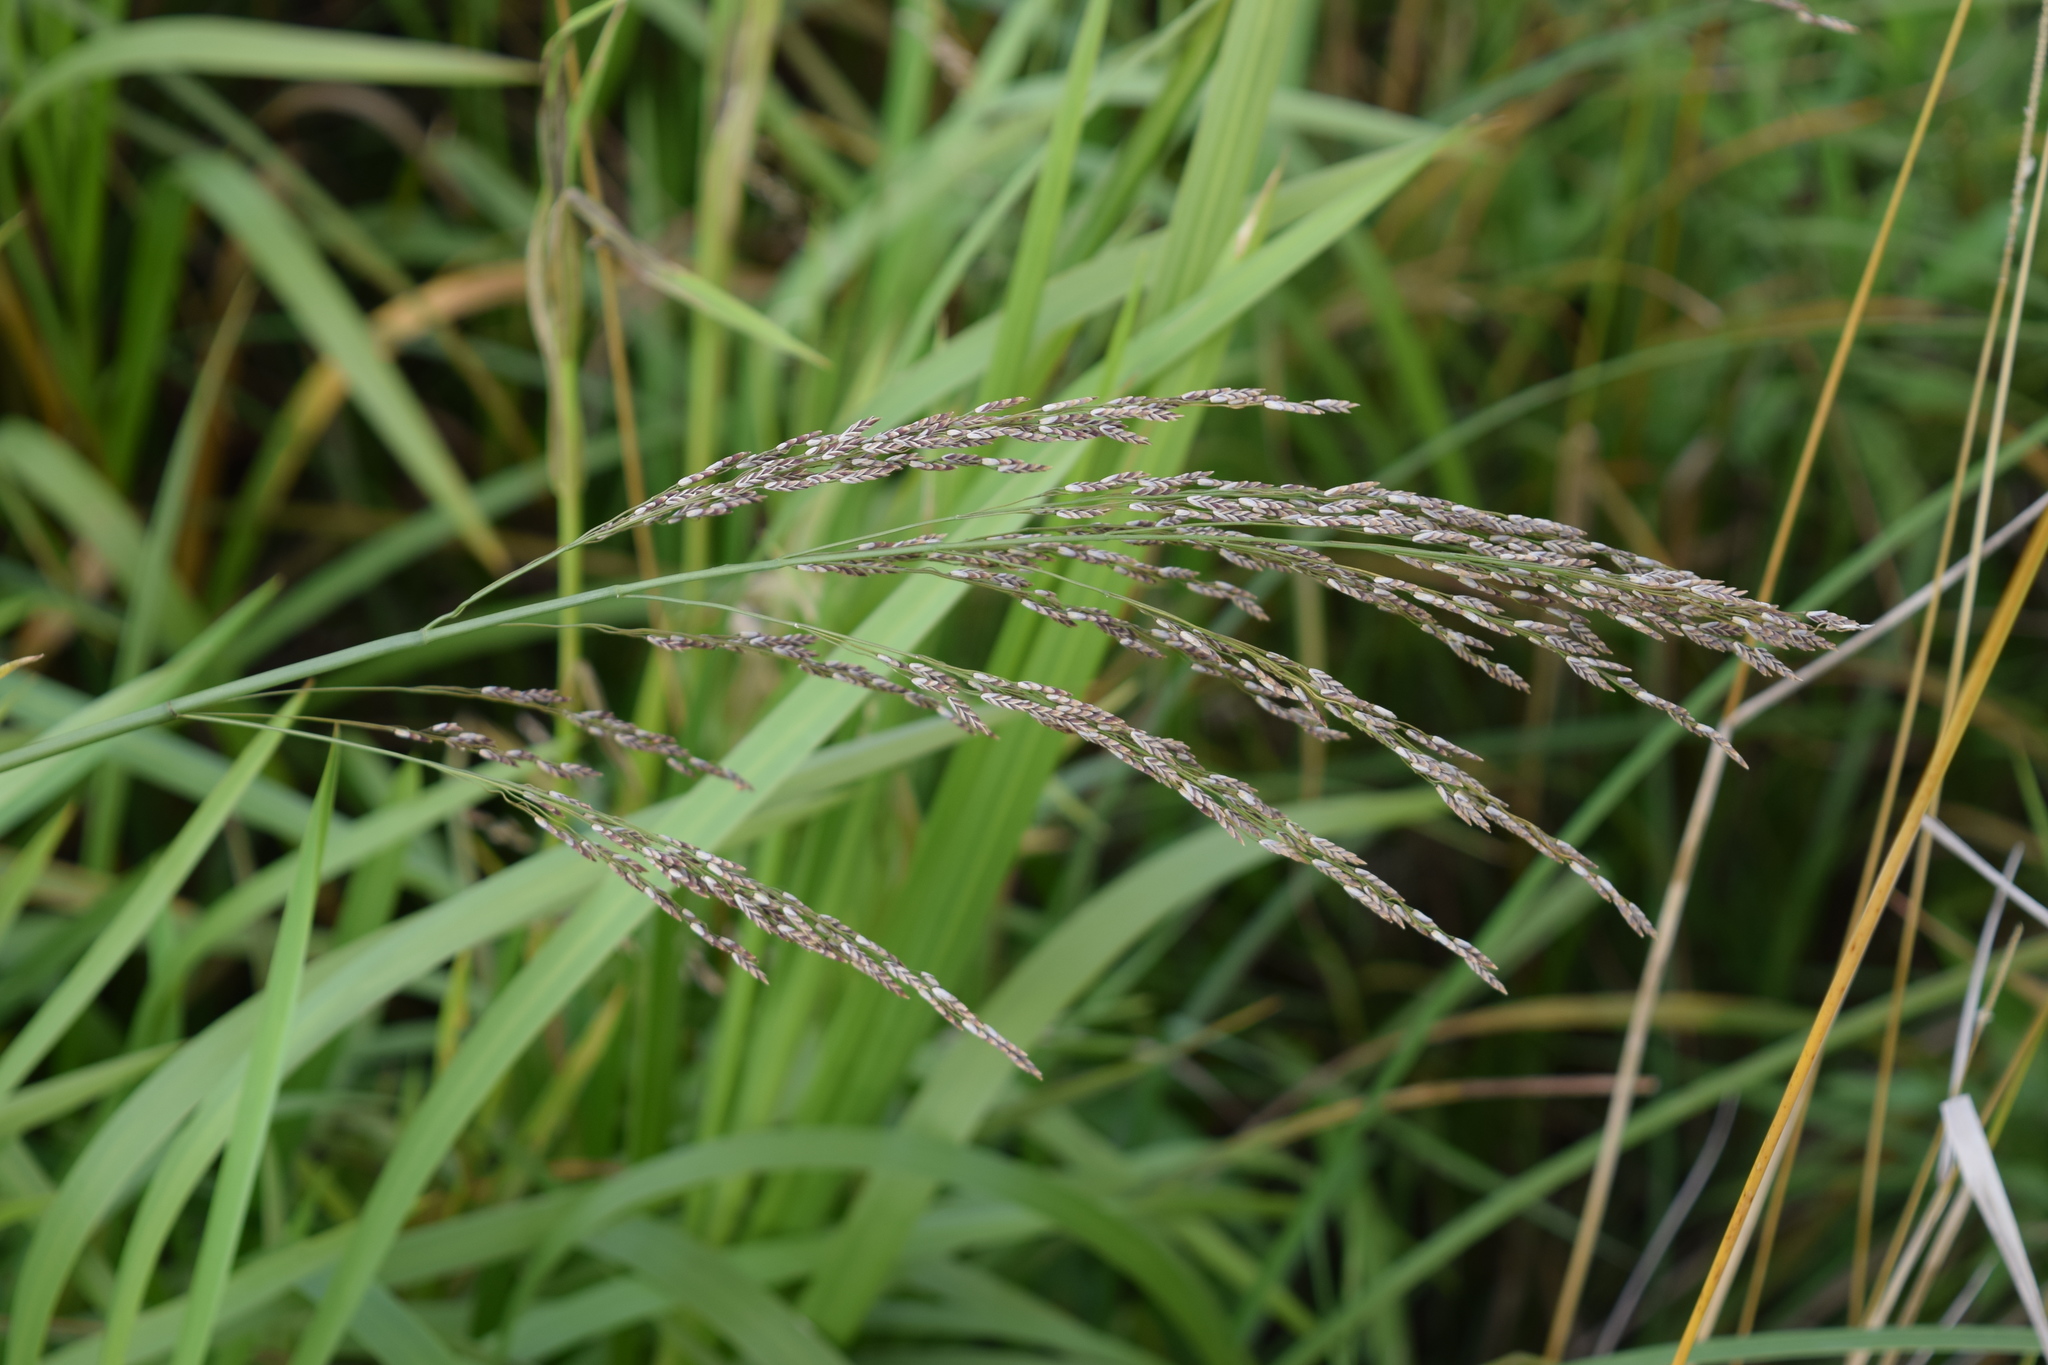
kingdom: Plantae
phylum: Tracheophyta
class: Liliopsida
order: Poales
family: Poaceae
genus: Glyceria
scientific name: Glyceria maxima
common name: Reed mannagrass
